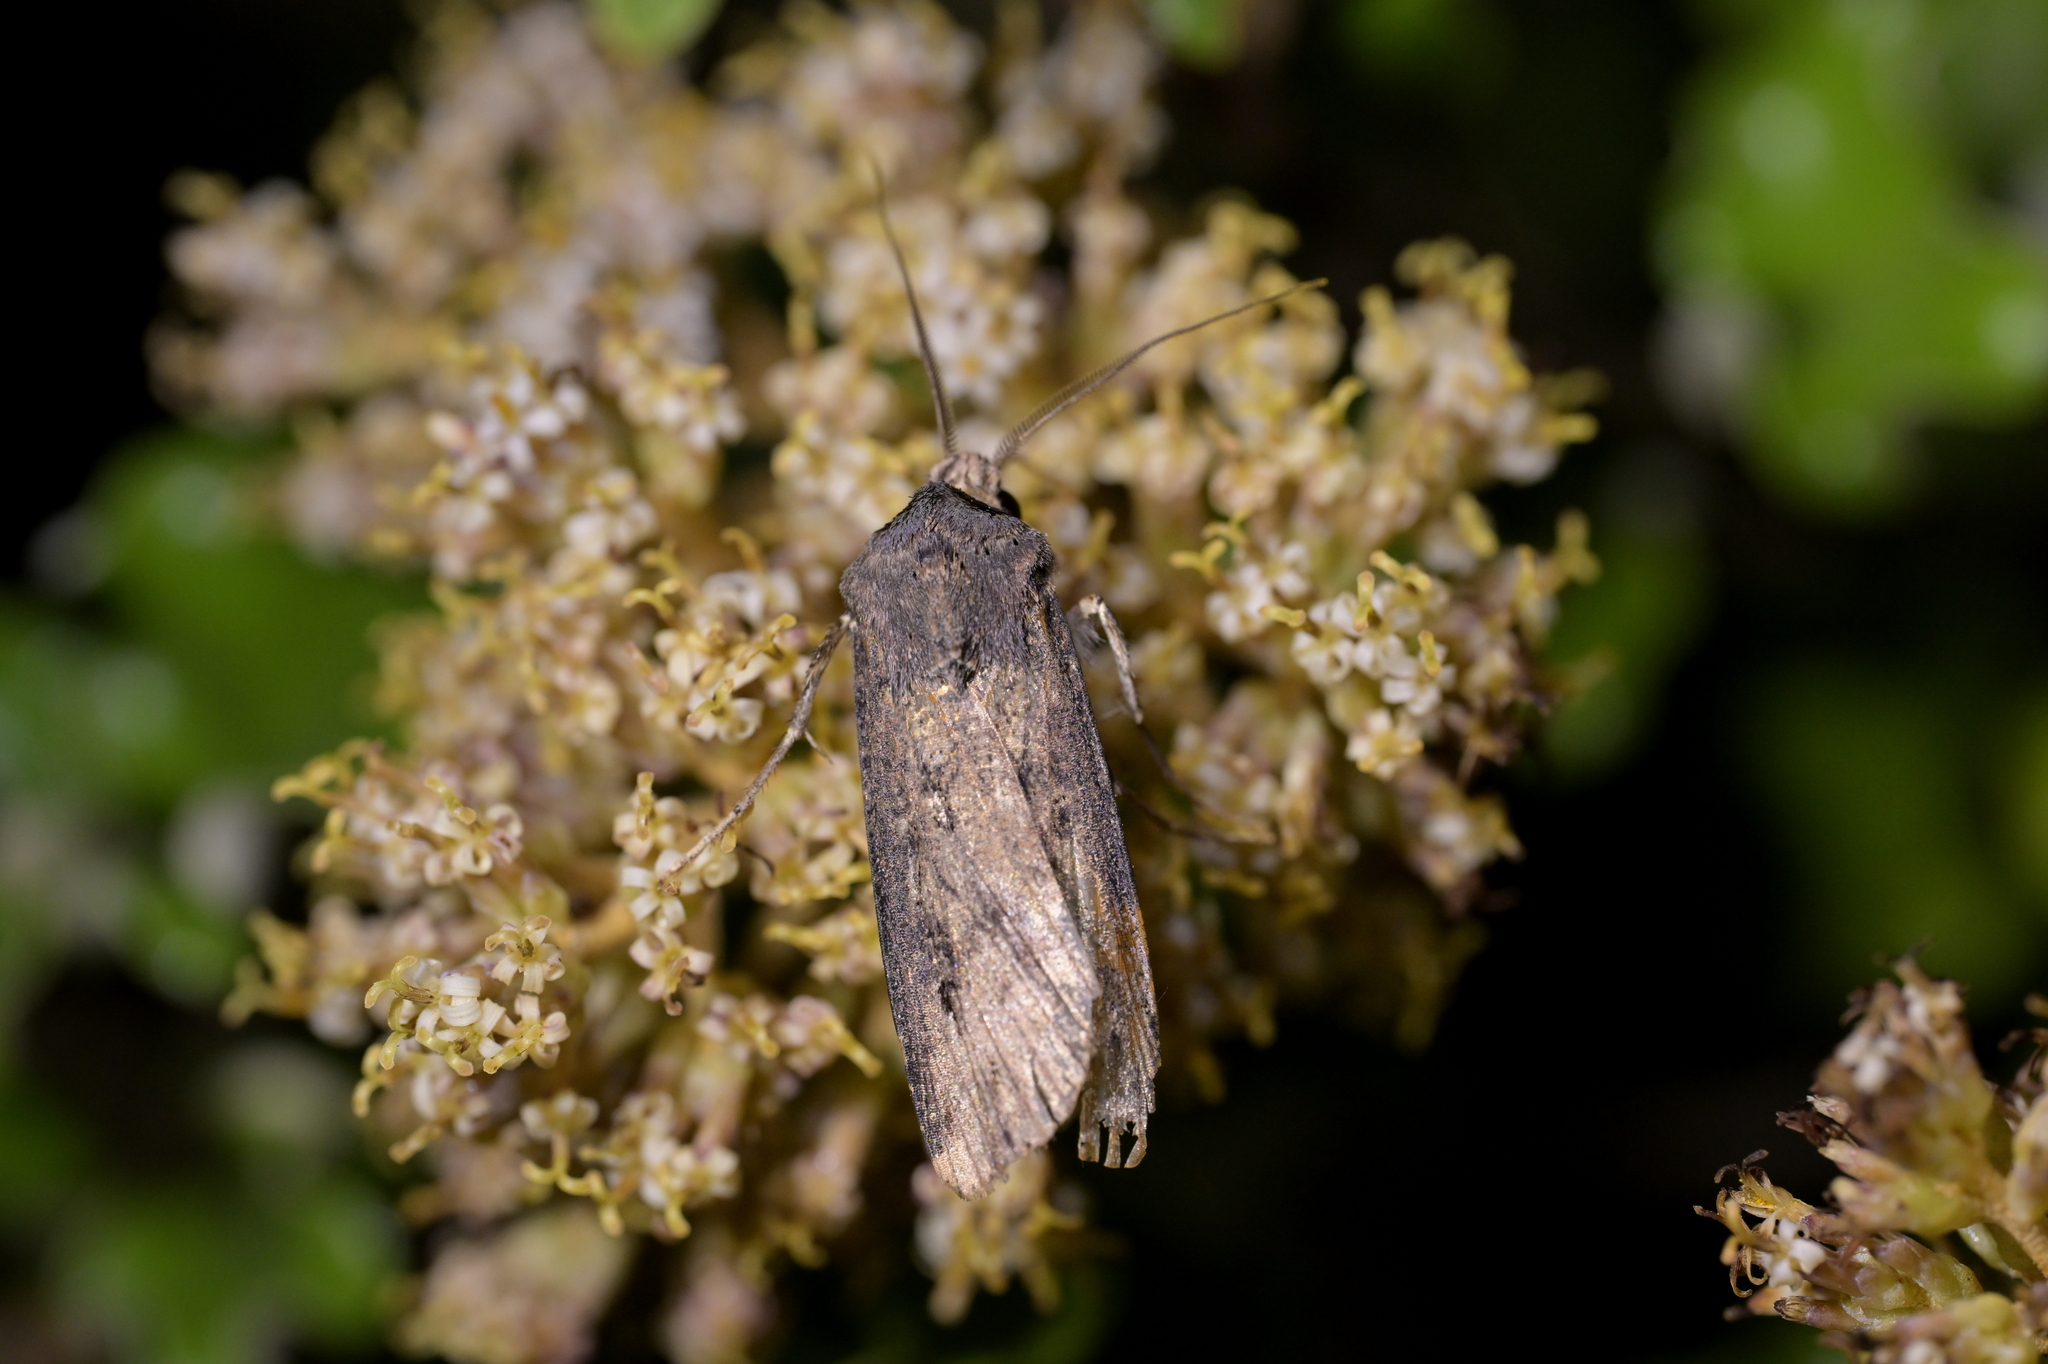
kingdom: Animalia
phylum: Arthropoda
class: Insecta
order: Lepidoptera
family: Noctuidae
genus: Agrotis
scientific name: Agrotis ipsilon
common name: Dark sword-grass
